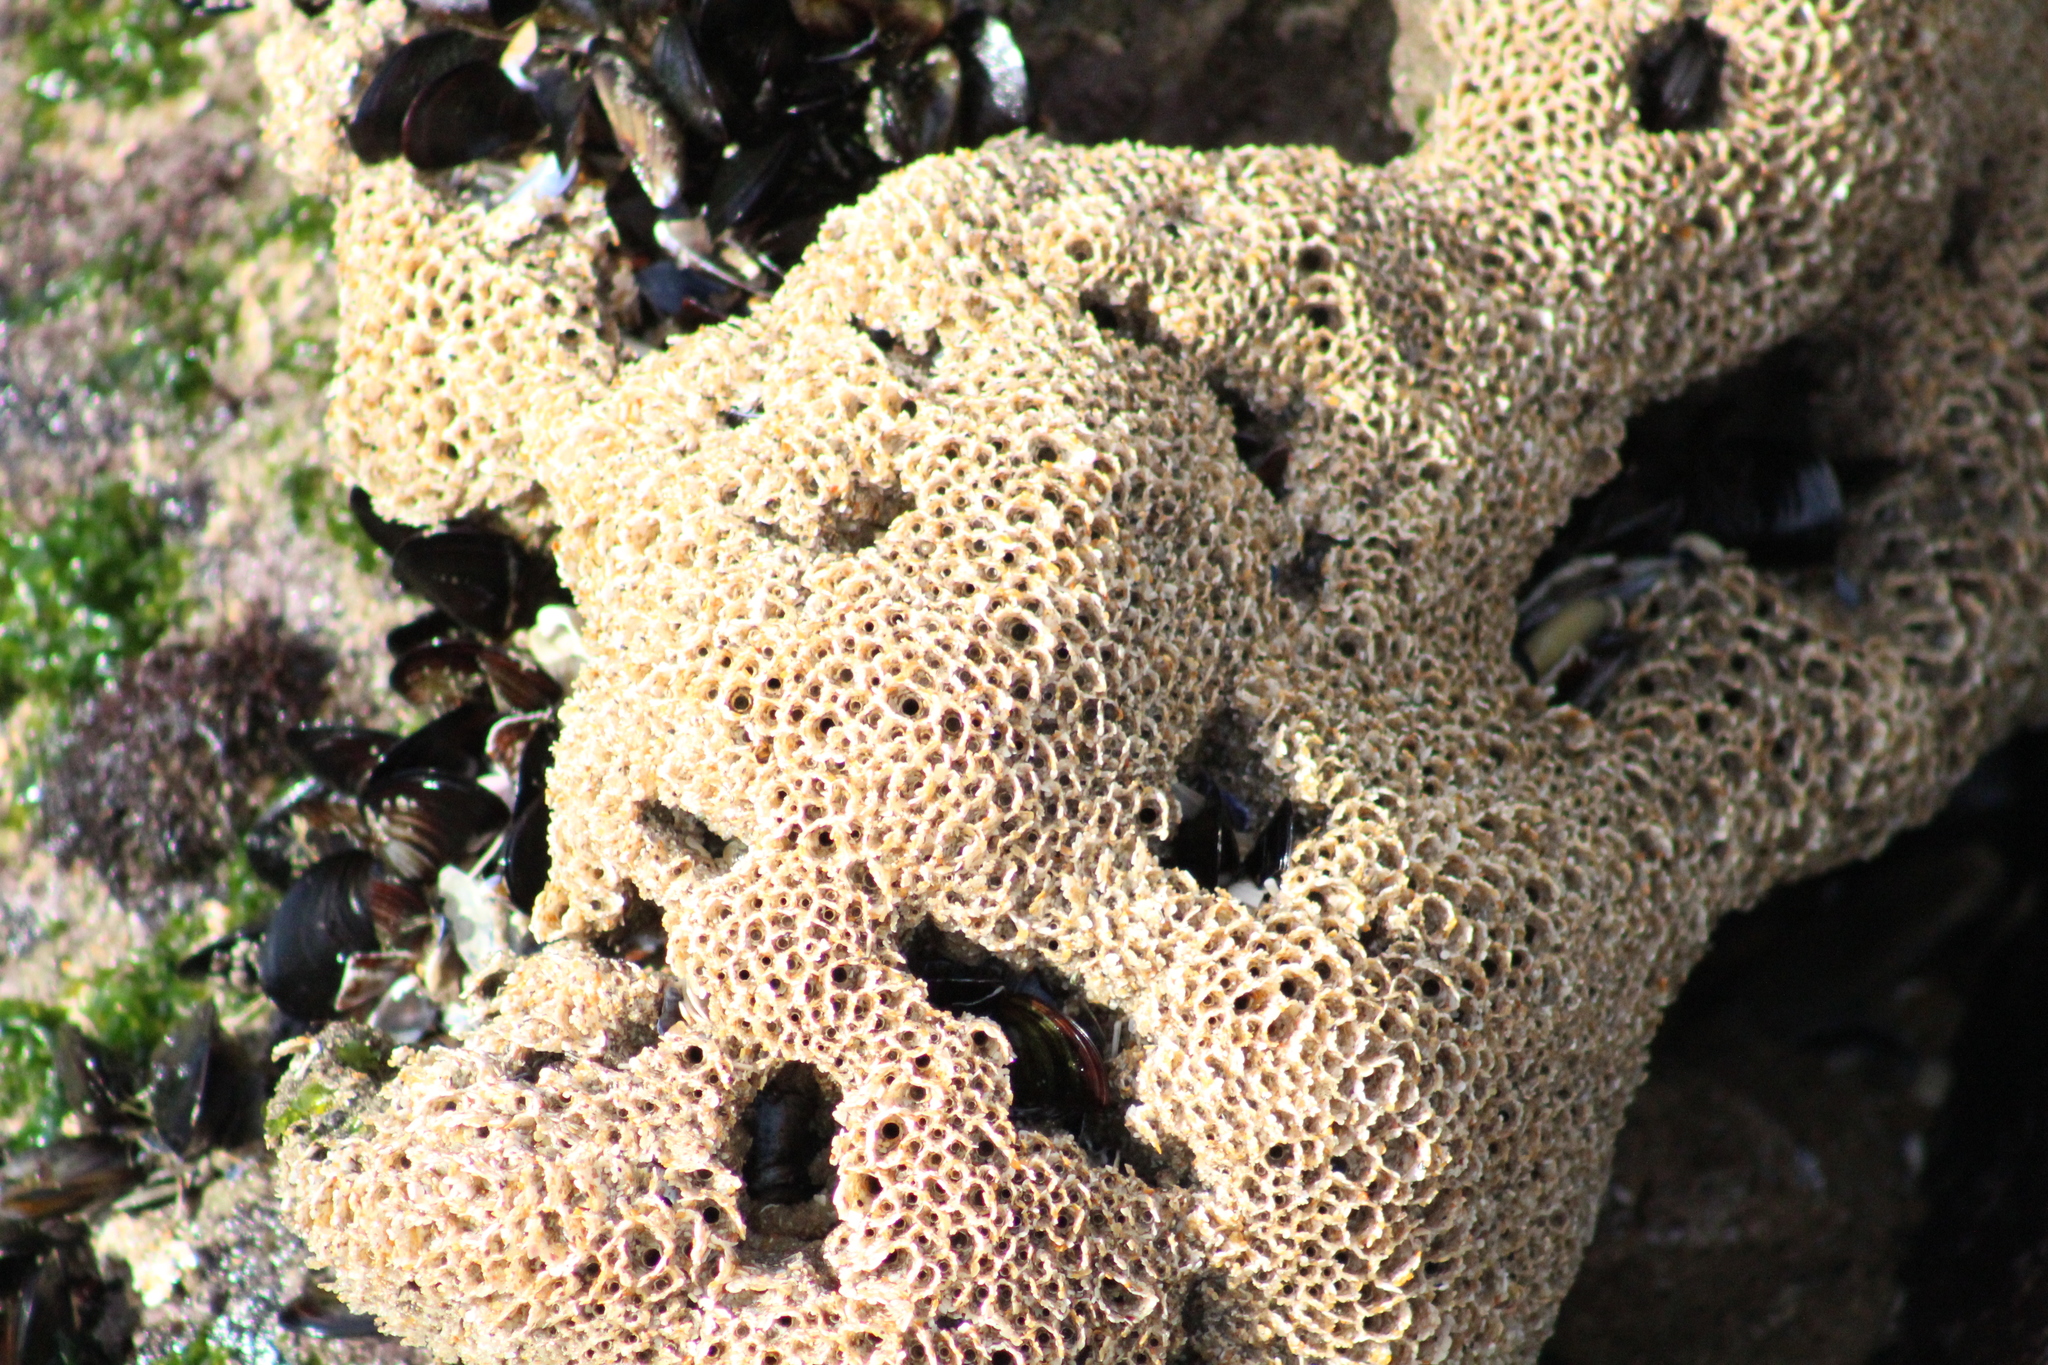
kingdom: Animalia
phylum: Annelida
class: Polychaeta
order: Sabellida
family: Sabellariidae
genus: Sabellaria
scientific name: Sabellaria alveolata
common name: Honeycomb worm
